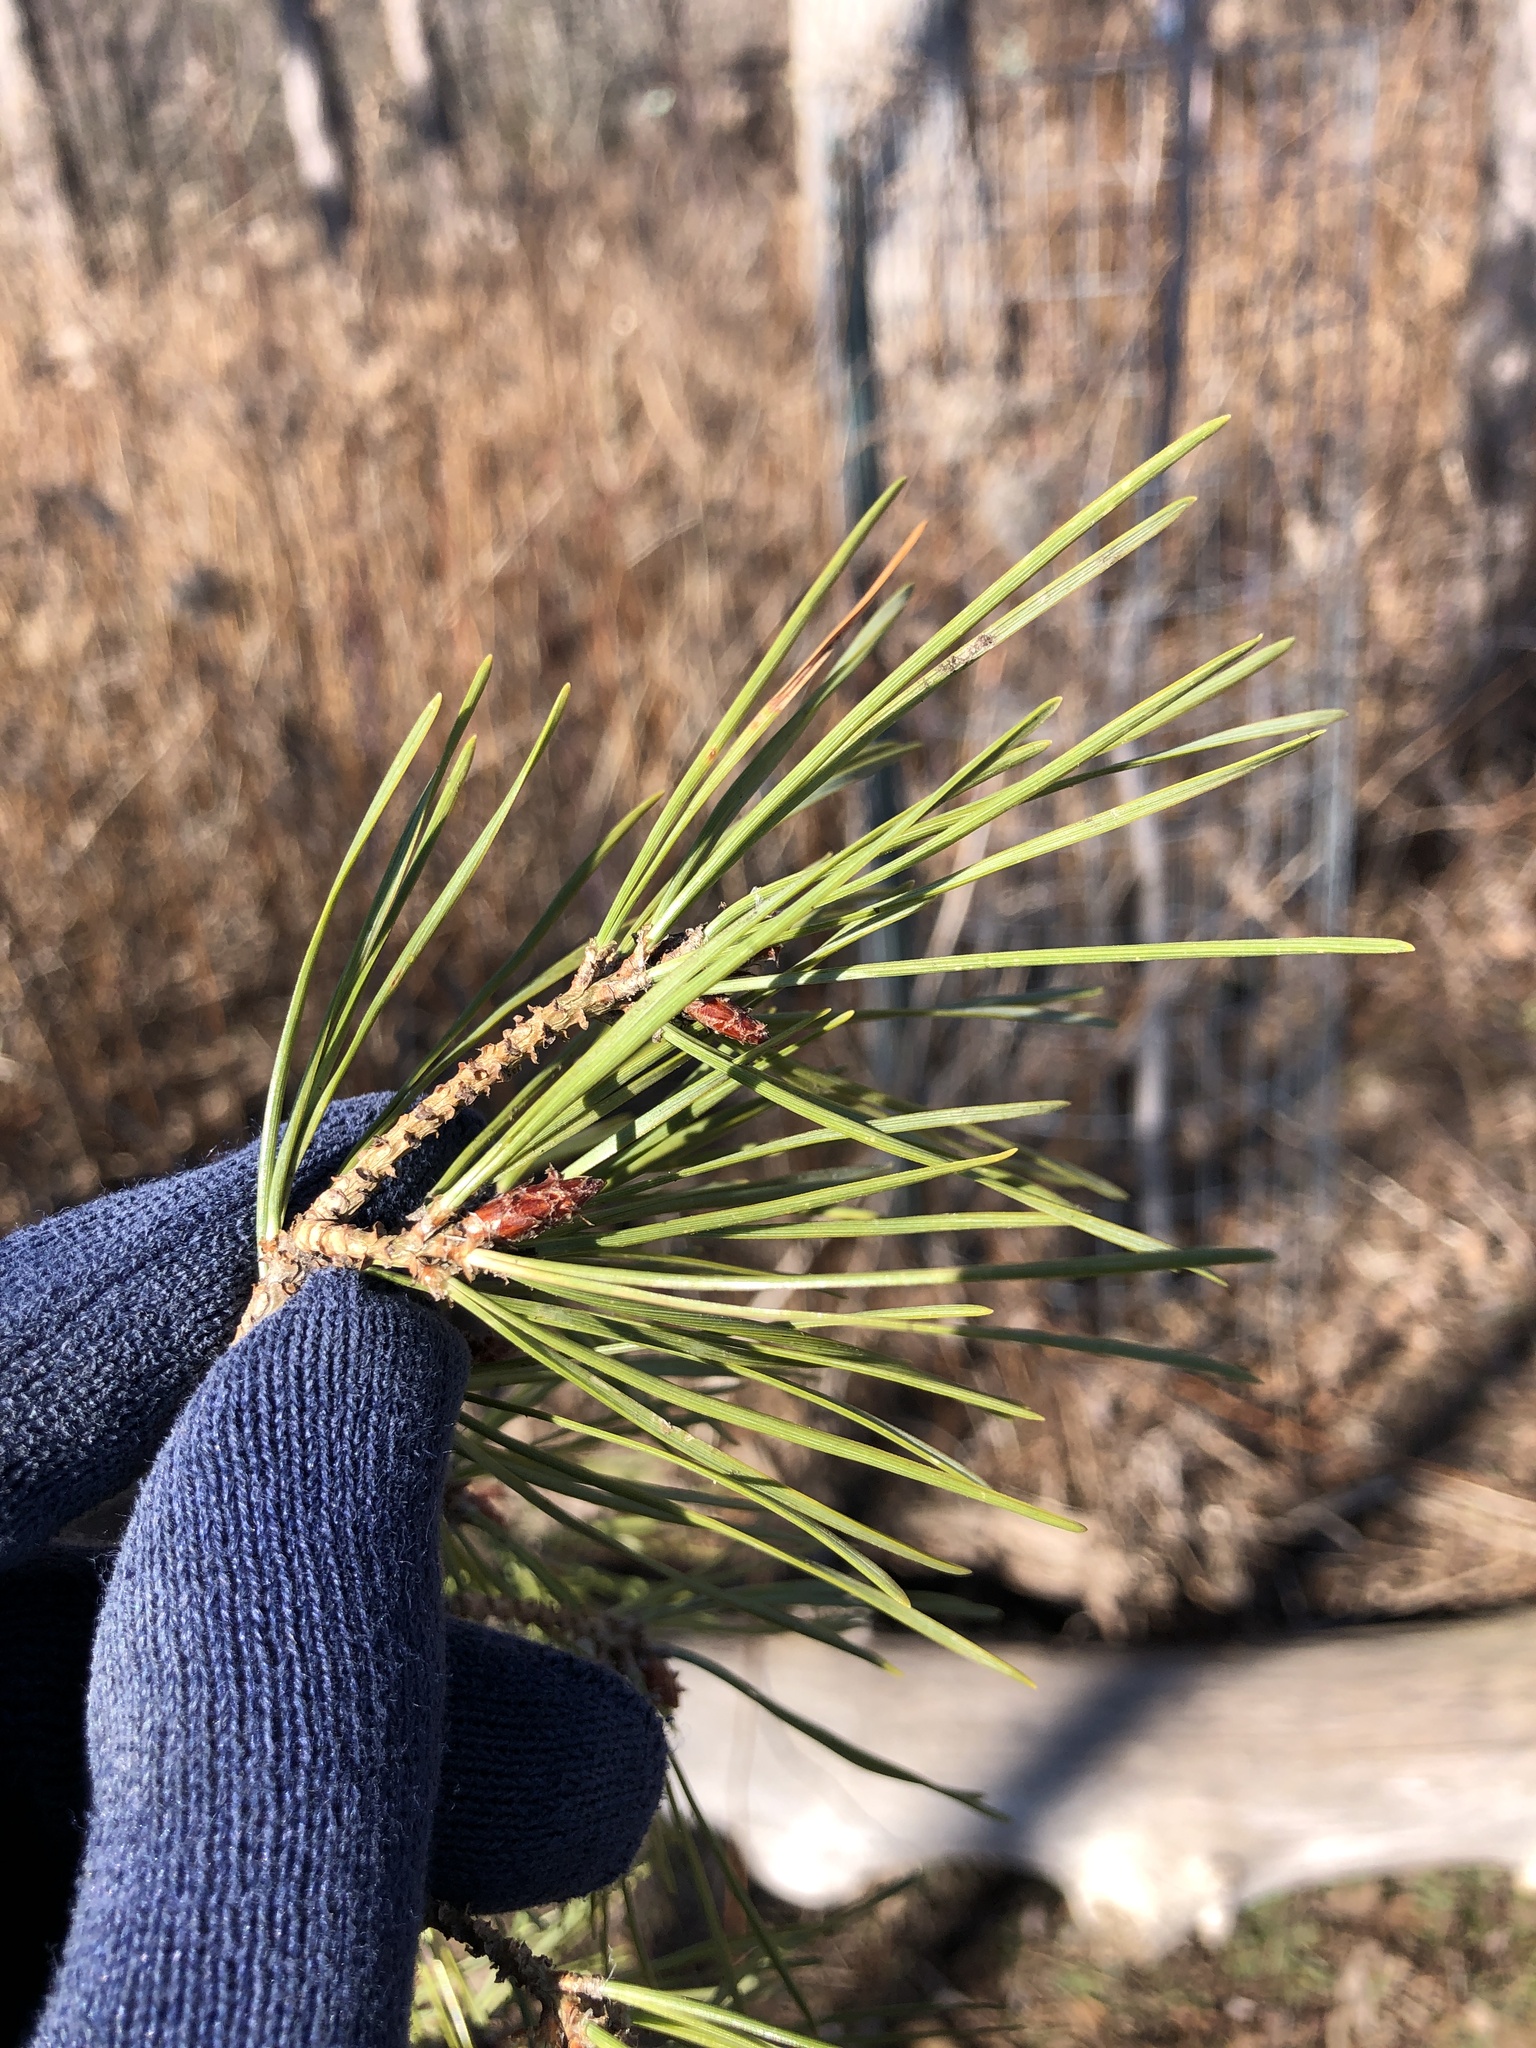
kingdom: Plantae
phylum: Tracheophyta
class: Pinopsida
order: Pinales
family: Pinaceae
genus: Pinus
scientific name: Pinus sylvestris
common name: Scots pine
